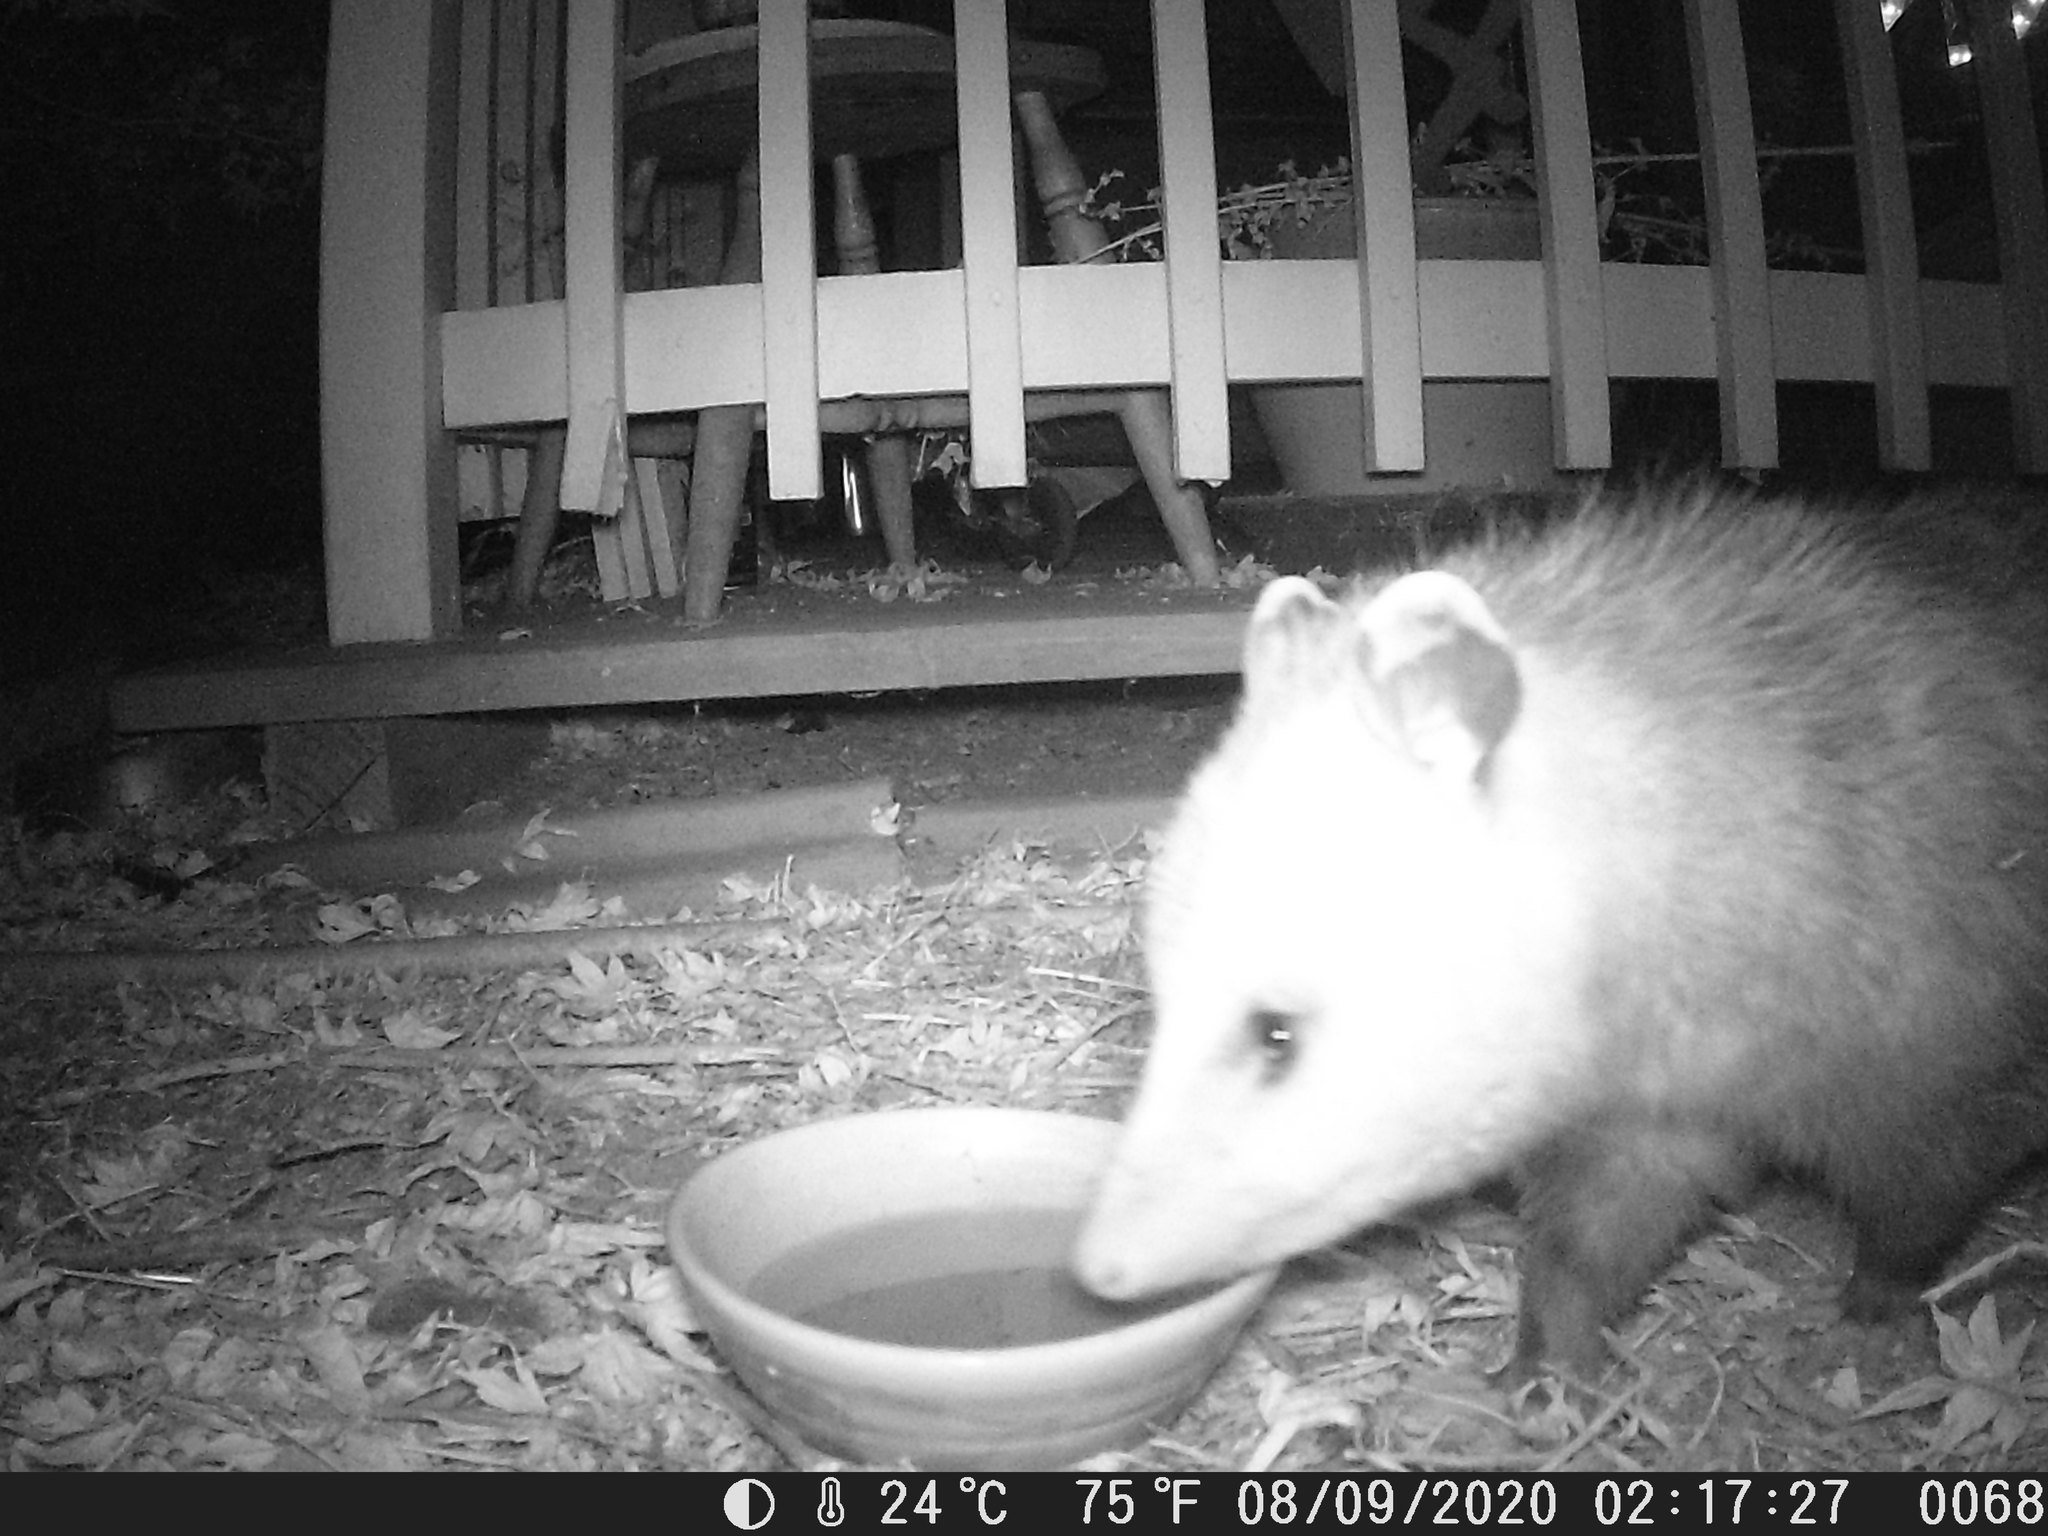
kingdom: Animalia
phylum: Chordata
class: Mammalia
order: Didelphimorphia
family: Didelphidae
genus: Didelphis
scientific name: Didelphis virginiana
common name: Virginia opossum
